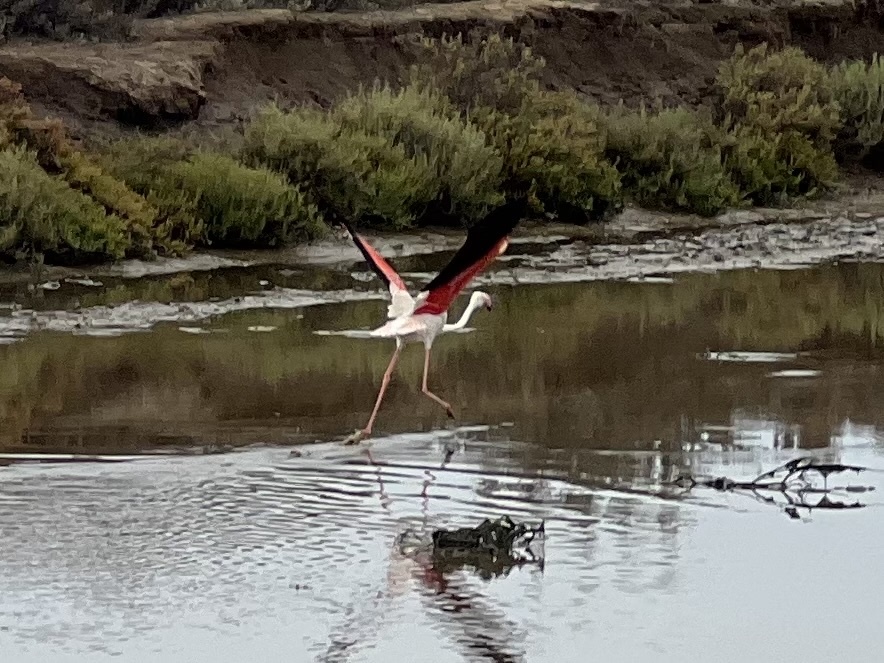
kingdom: Animalia
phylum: Chordata
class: Aves
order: Phoenicopteriformes
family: Phoenicopteridae
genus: Phoenicopterus
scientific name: Phoenicopterus roseus
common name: Greater flamingo
